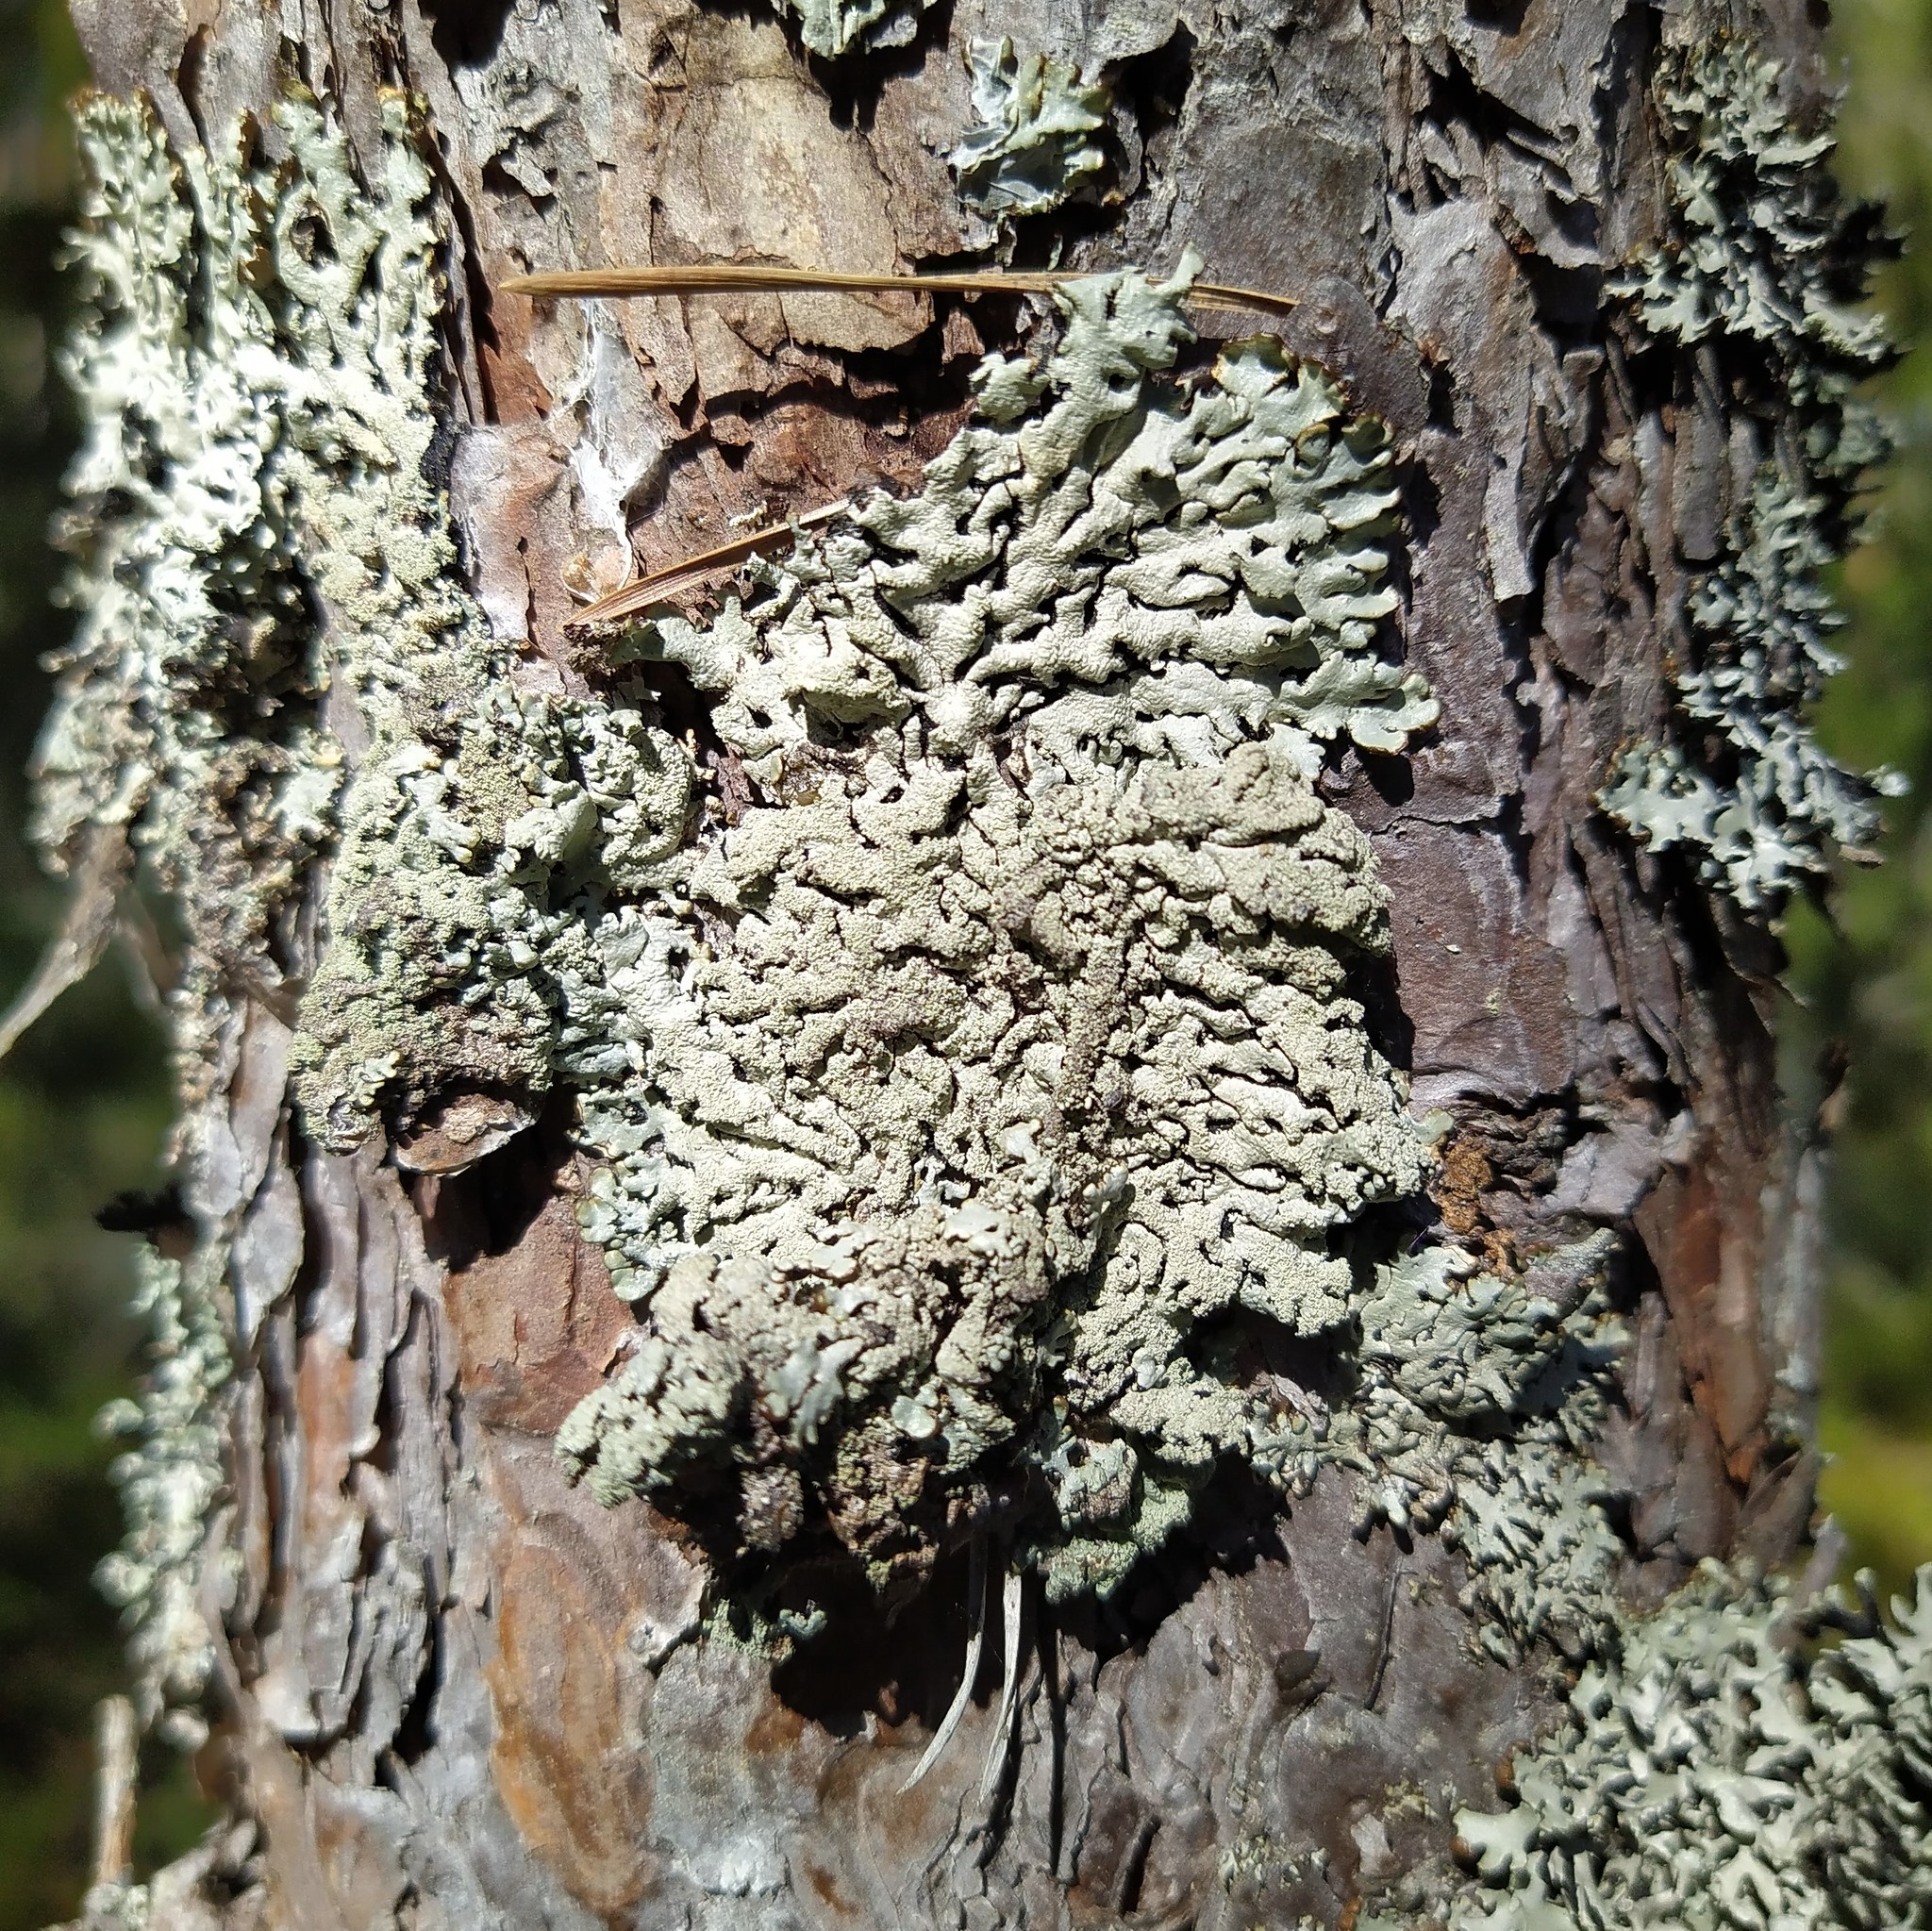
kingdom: Fungi
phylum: Ascomycota
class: Lecanoromycetes
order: Lecanorales
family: Parmeliaceae
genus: Hypogymnia
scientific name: Hypogymnia farinacea
